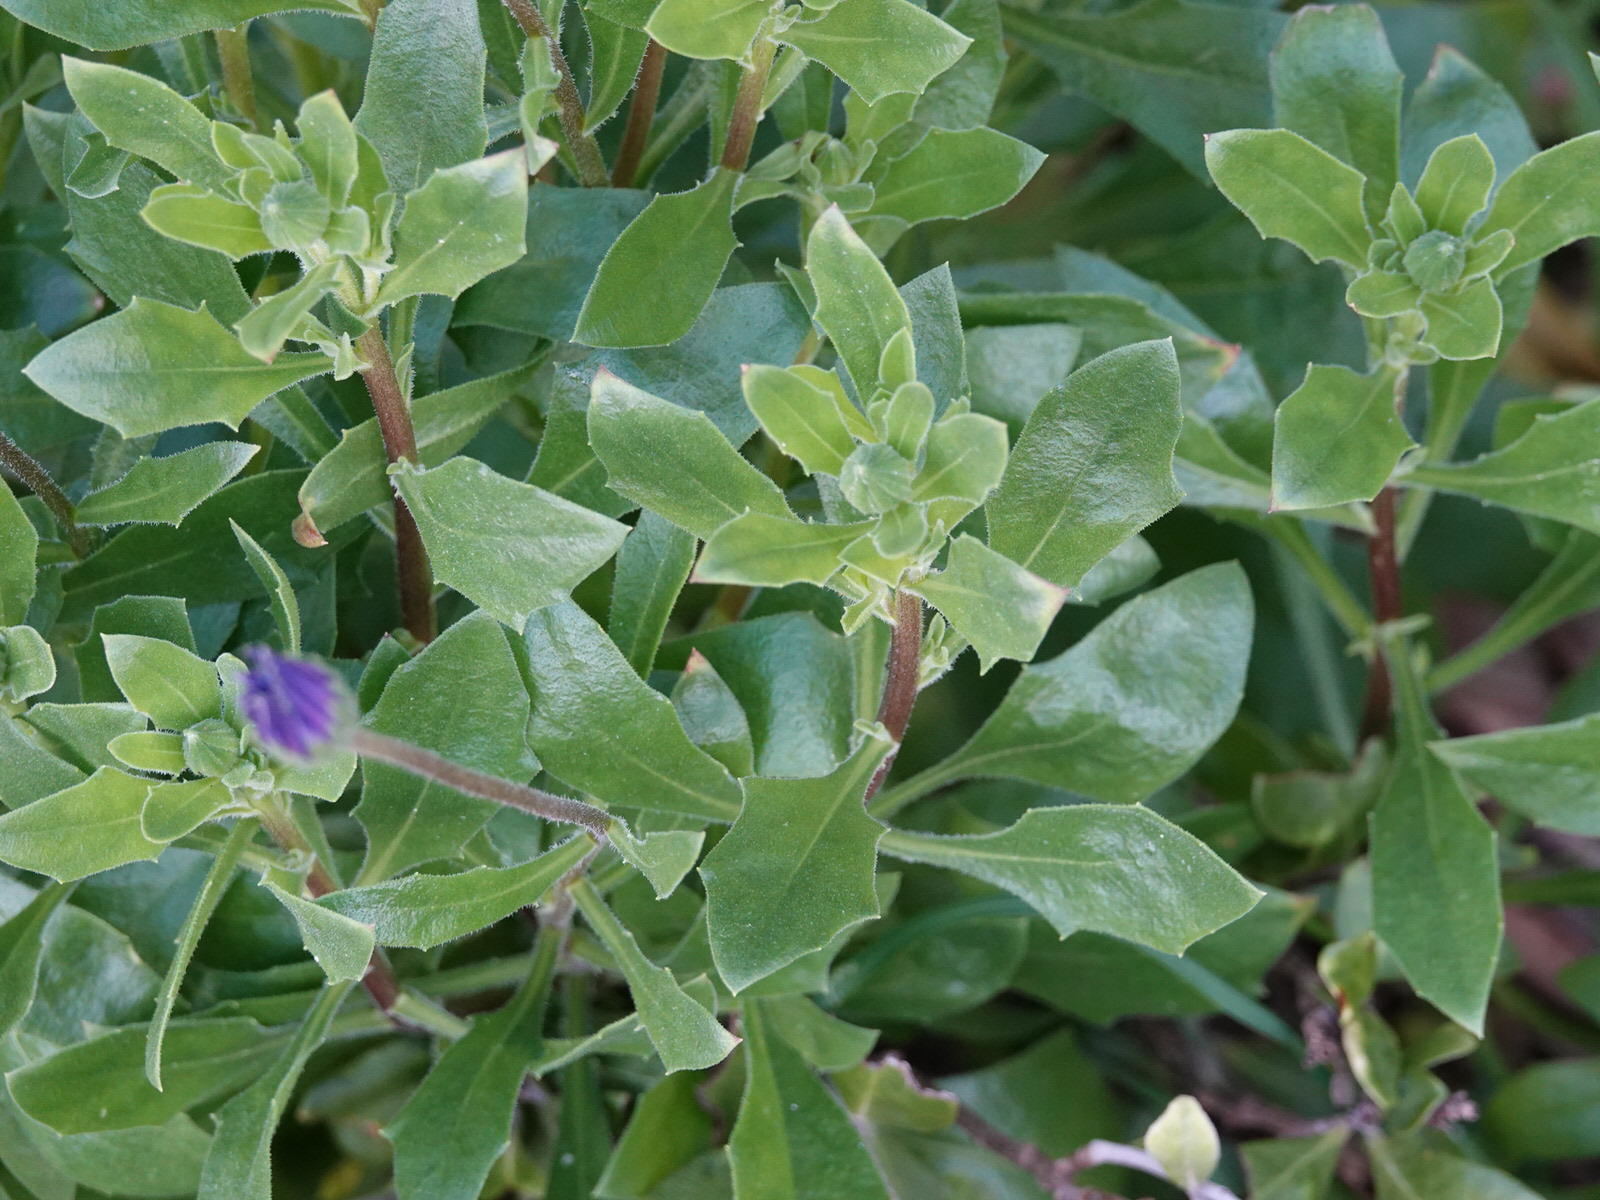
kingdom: Plantae
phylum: Tracheophyta
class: Magnoliopsida
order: Asterales
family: Asteraceae
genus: Dimorphotheca
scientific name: Dimorphotheca fruticosa
